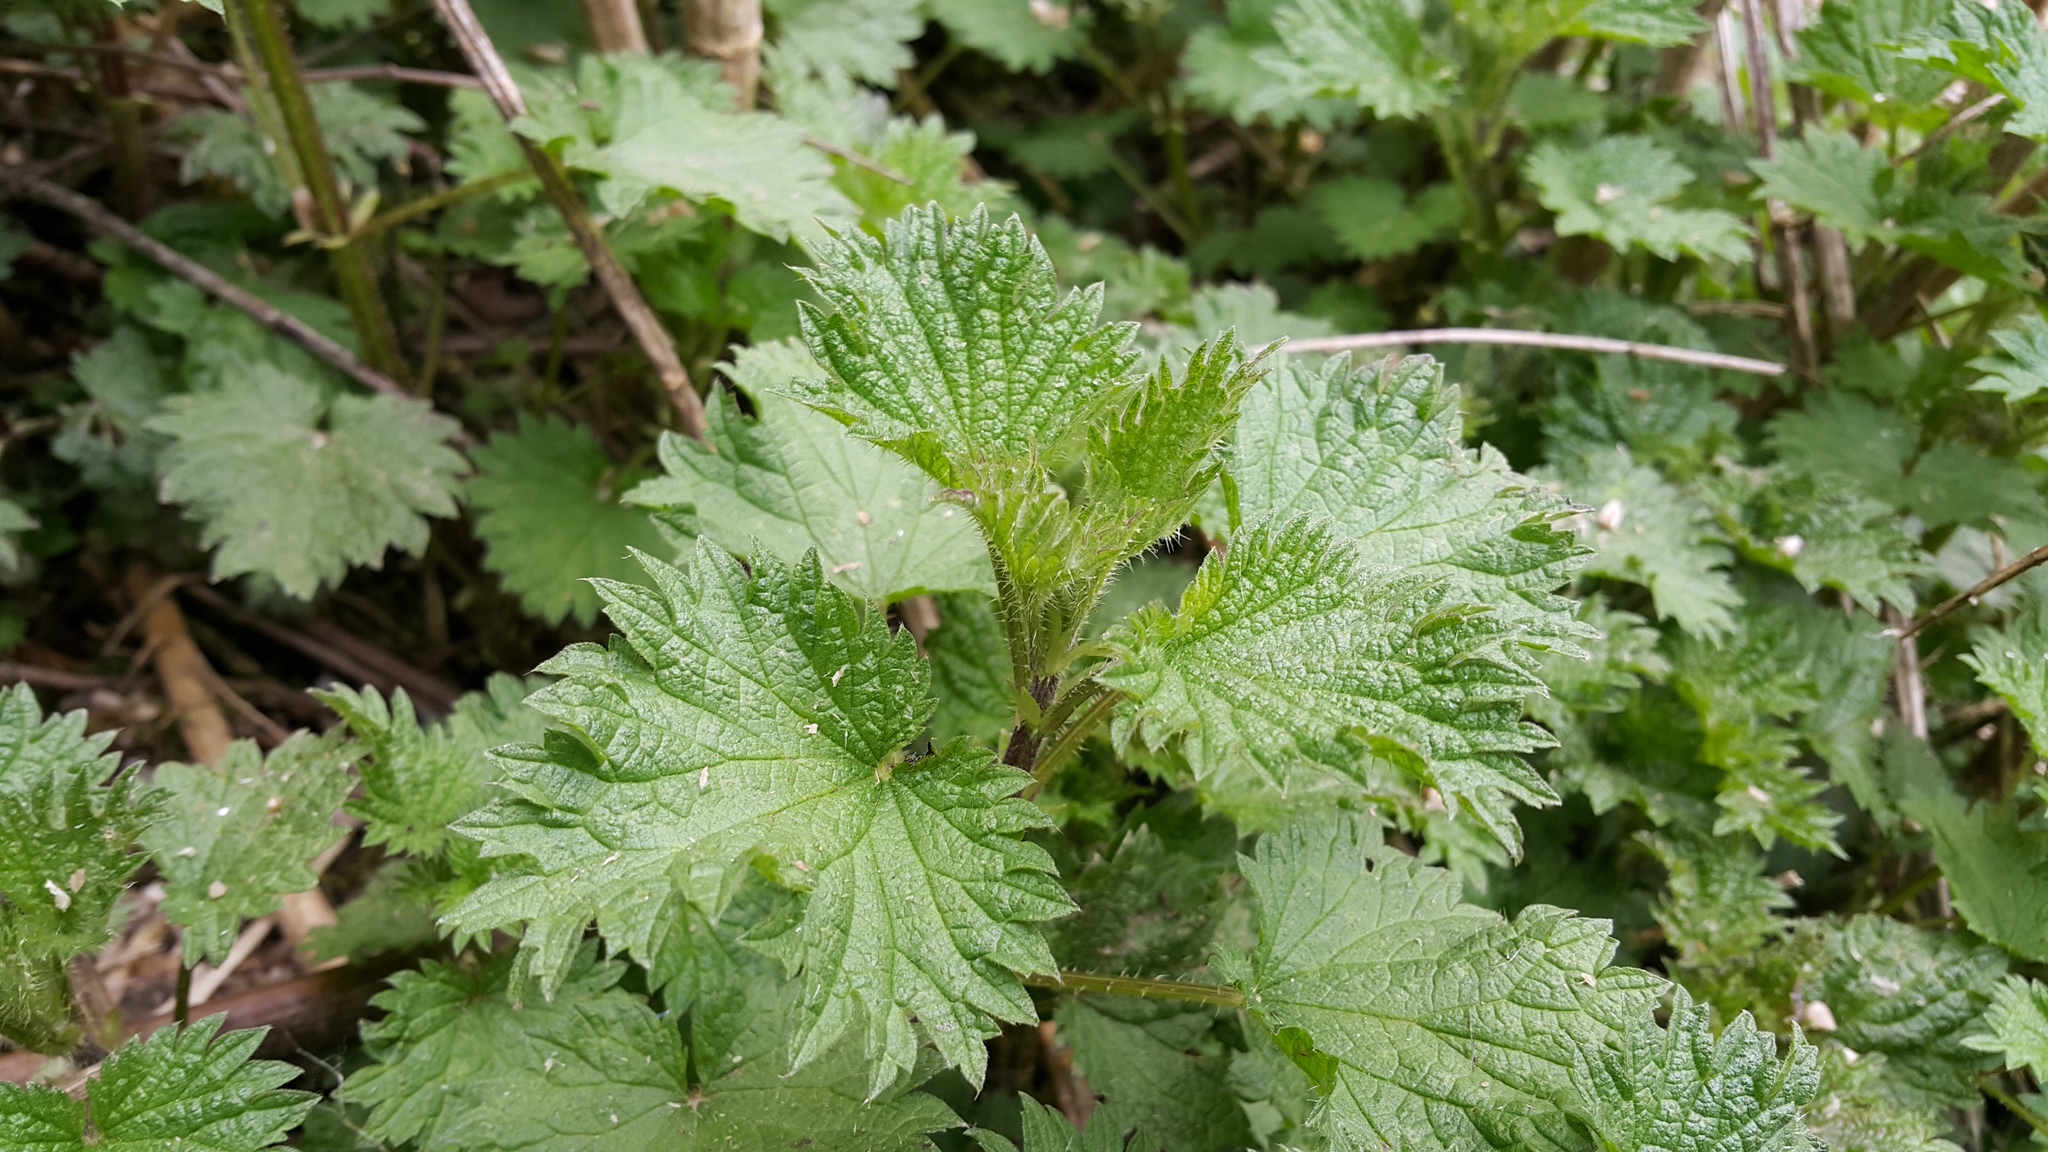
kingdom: Plantae
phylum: Tracheophyta
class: Magnoliopsida
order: Rosales
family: Urticaceae
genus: Urtica
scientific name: Urtica dioica
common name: Common nettle
